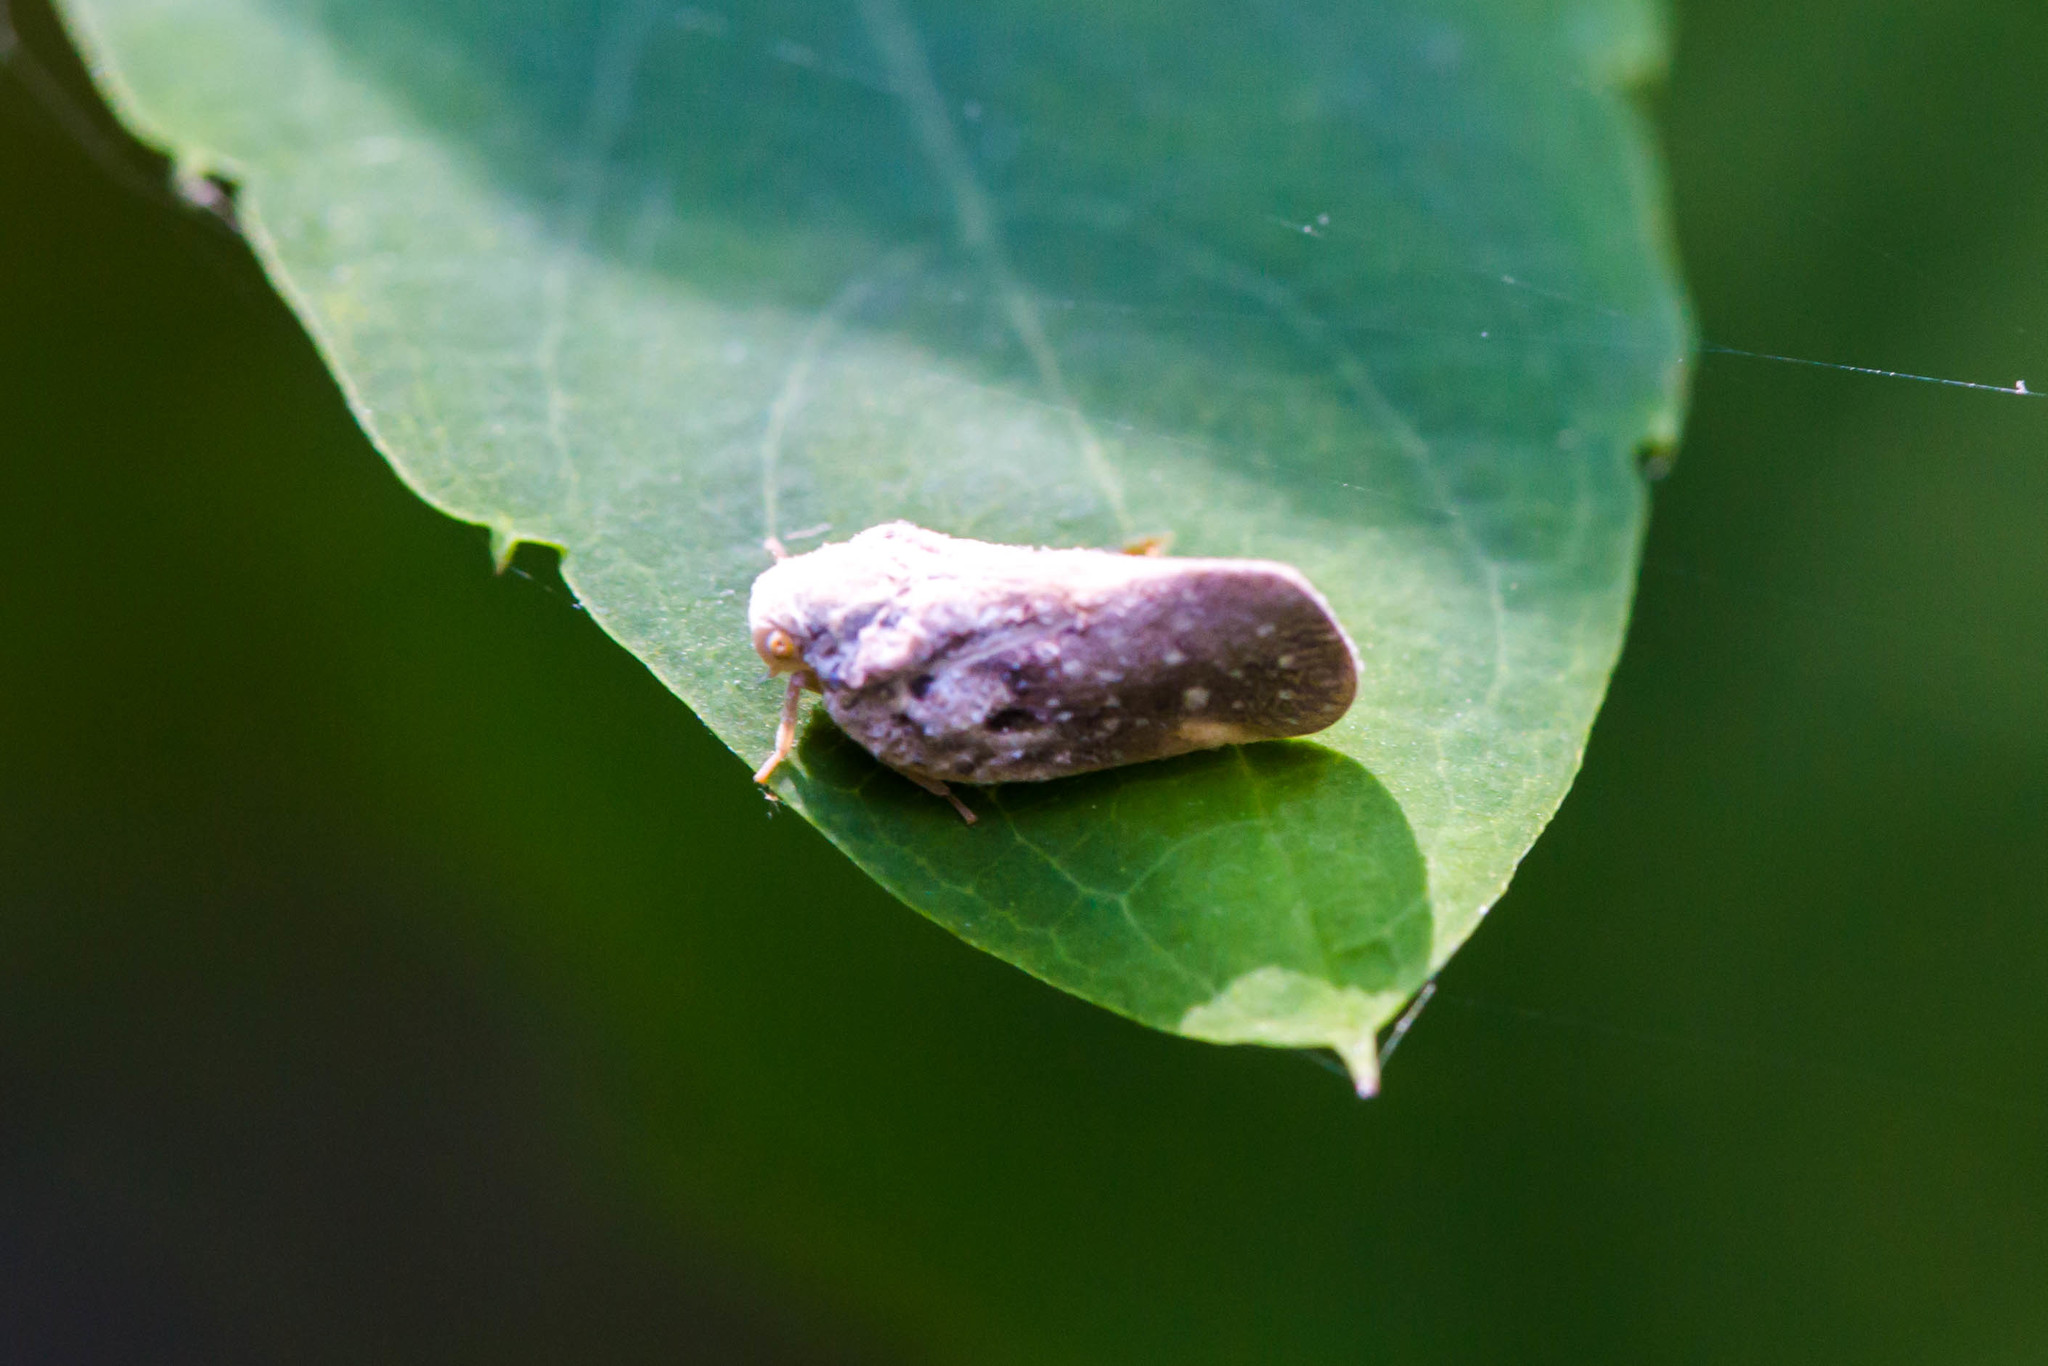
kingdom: Animalia
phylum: Arthropoda
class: Insecta
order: Hemiptera
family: Flatidae
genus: Metcalfa
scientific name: Metcalfa pruinosa
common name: Citrus flatid planthopper
